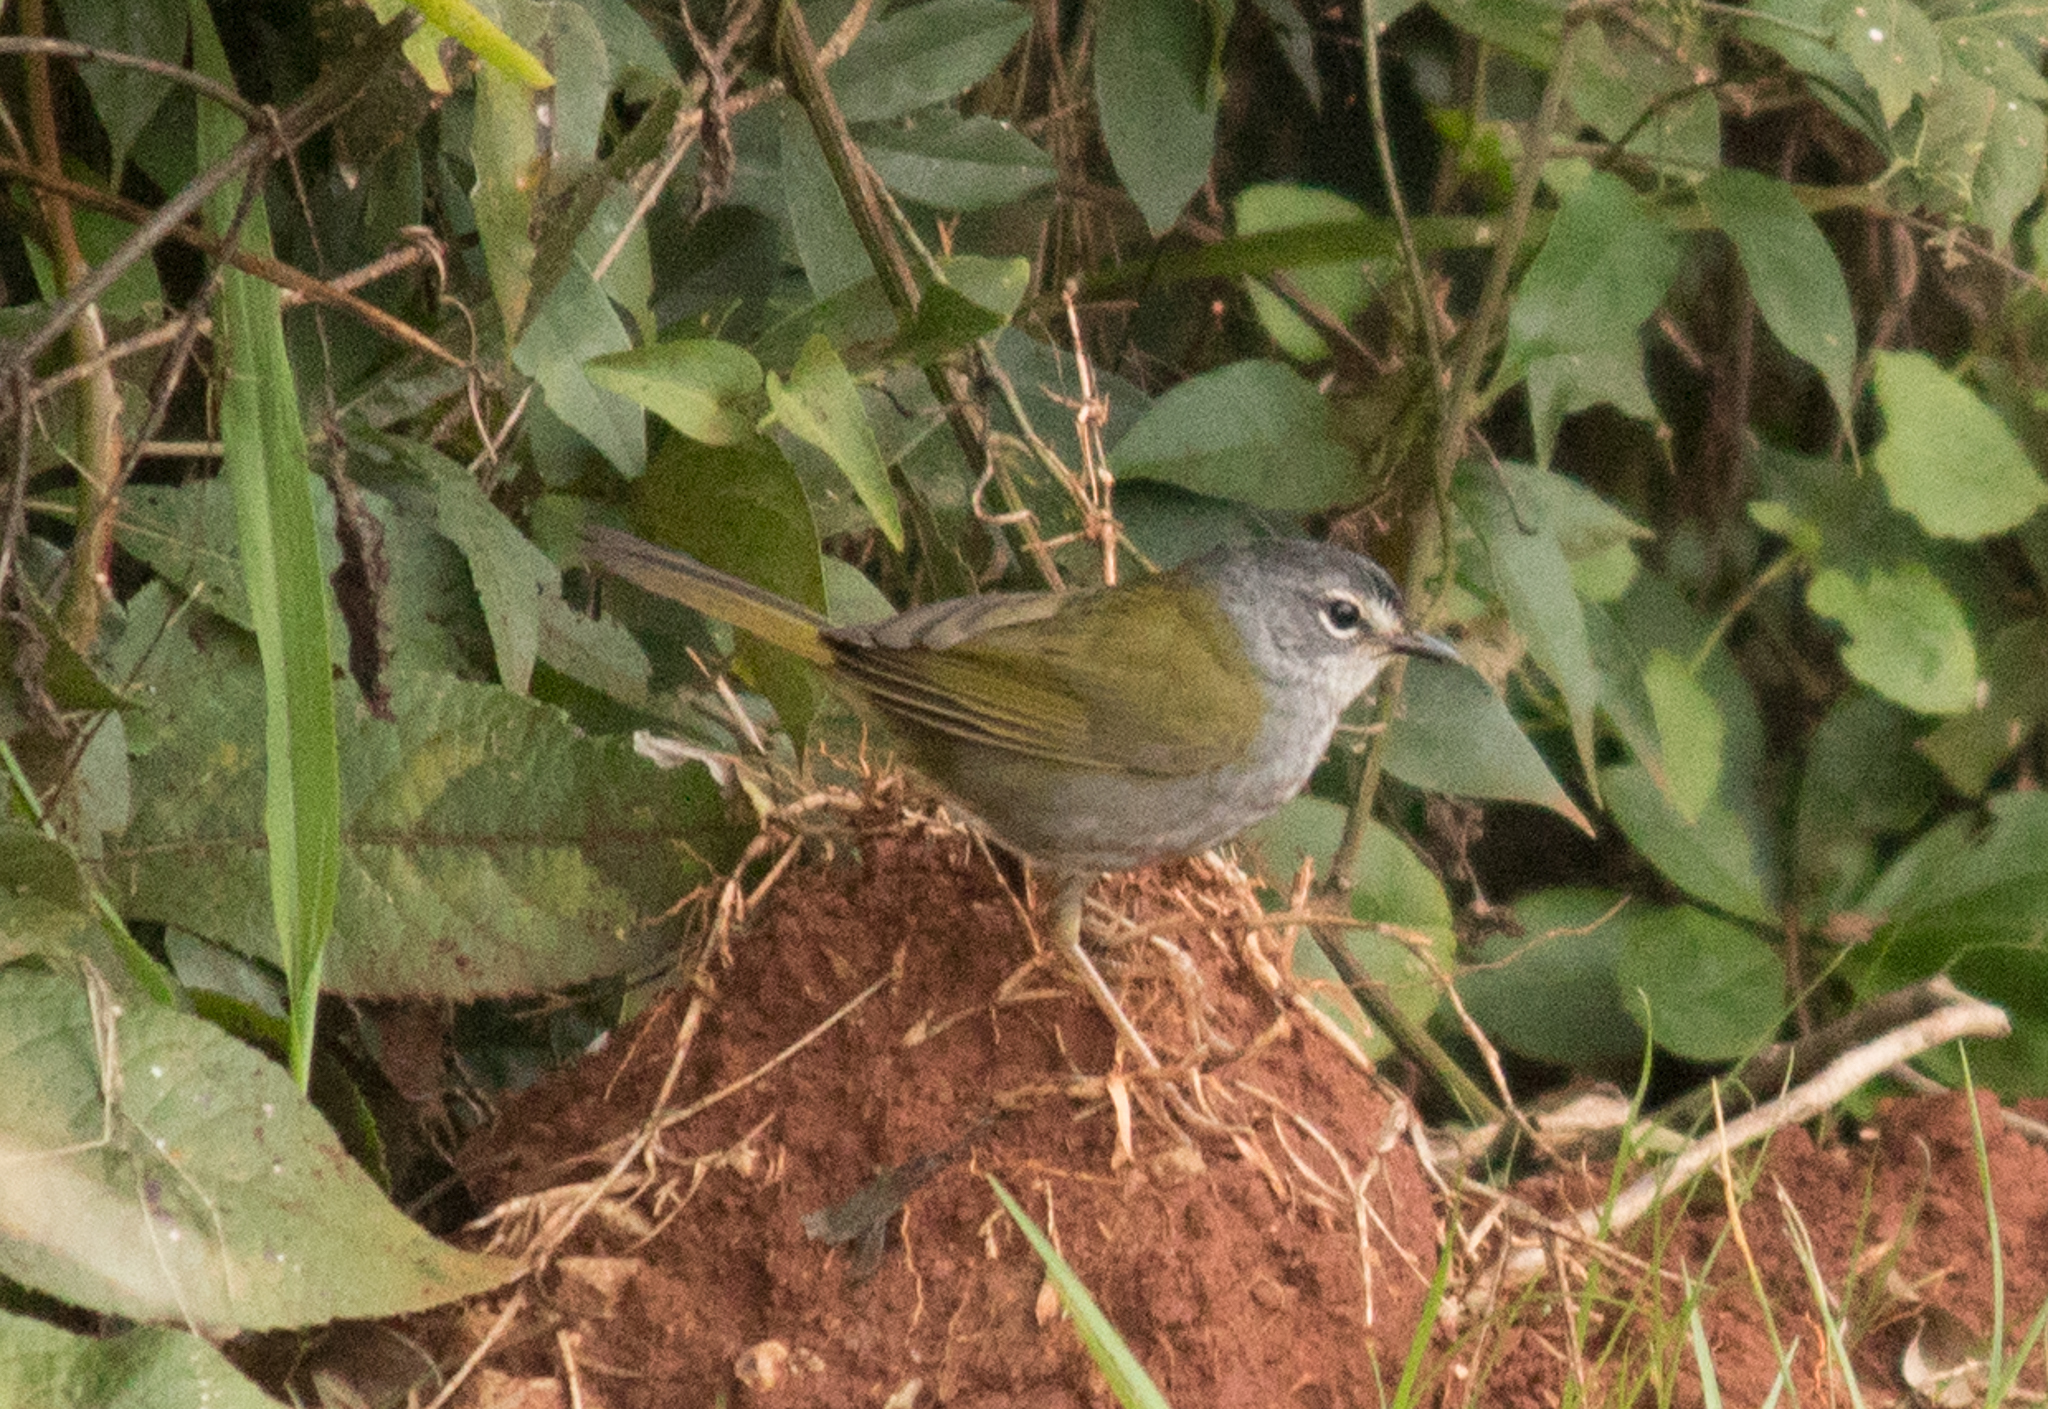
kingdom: Animalia
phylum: Chordata
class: Aves
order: Passeriformes
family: Parulidae
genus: Myiothlypis
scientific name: Myiothlypis leucoblephara
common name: White-rimmed warbler
